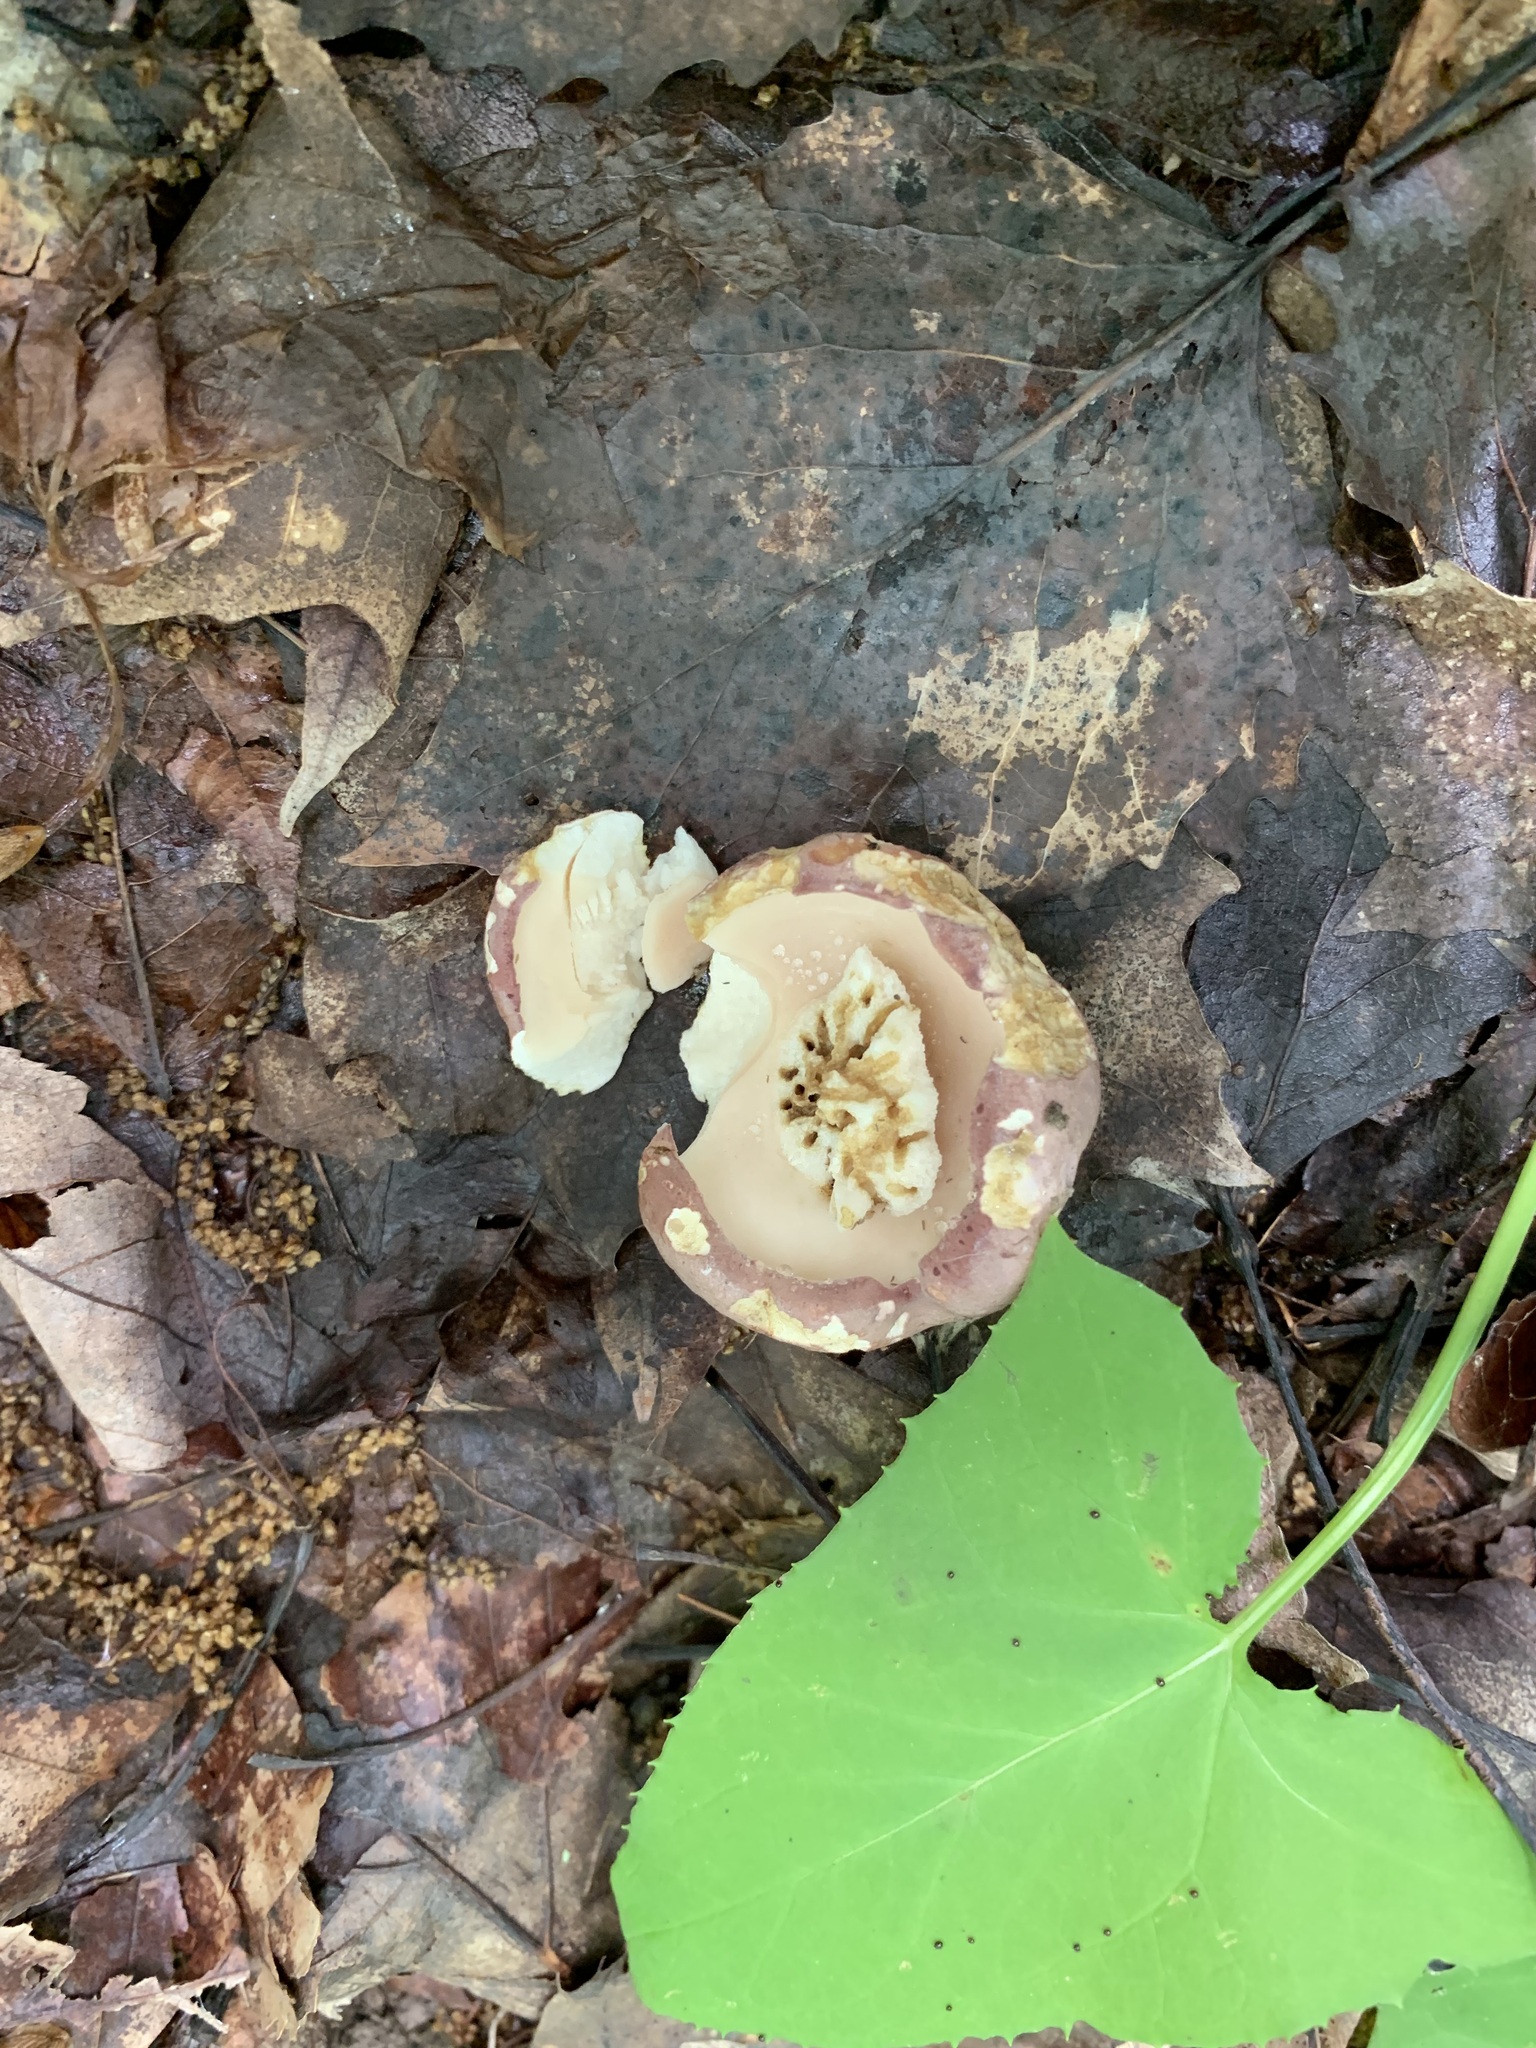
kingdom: Fungi
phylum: Basidiomycota
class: Agaricomycetes
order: Boletales
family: Boletaceae
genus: Tylopilus
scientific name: Tylopilus rubrobrunneus
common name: Reddish brown bitter bolete
